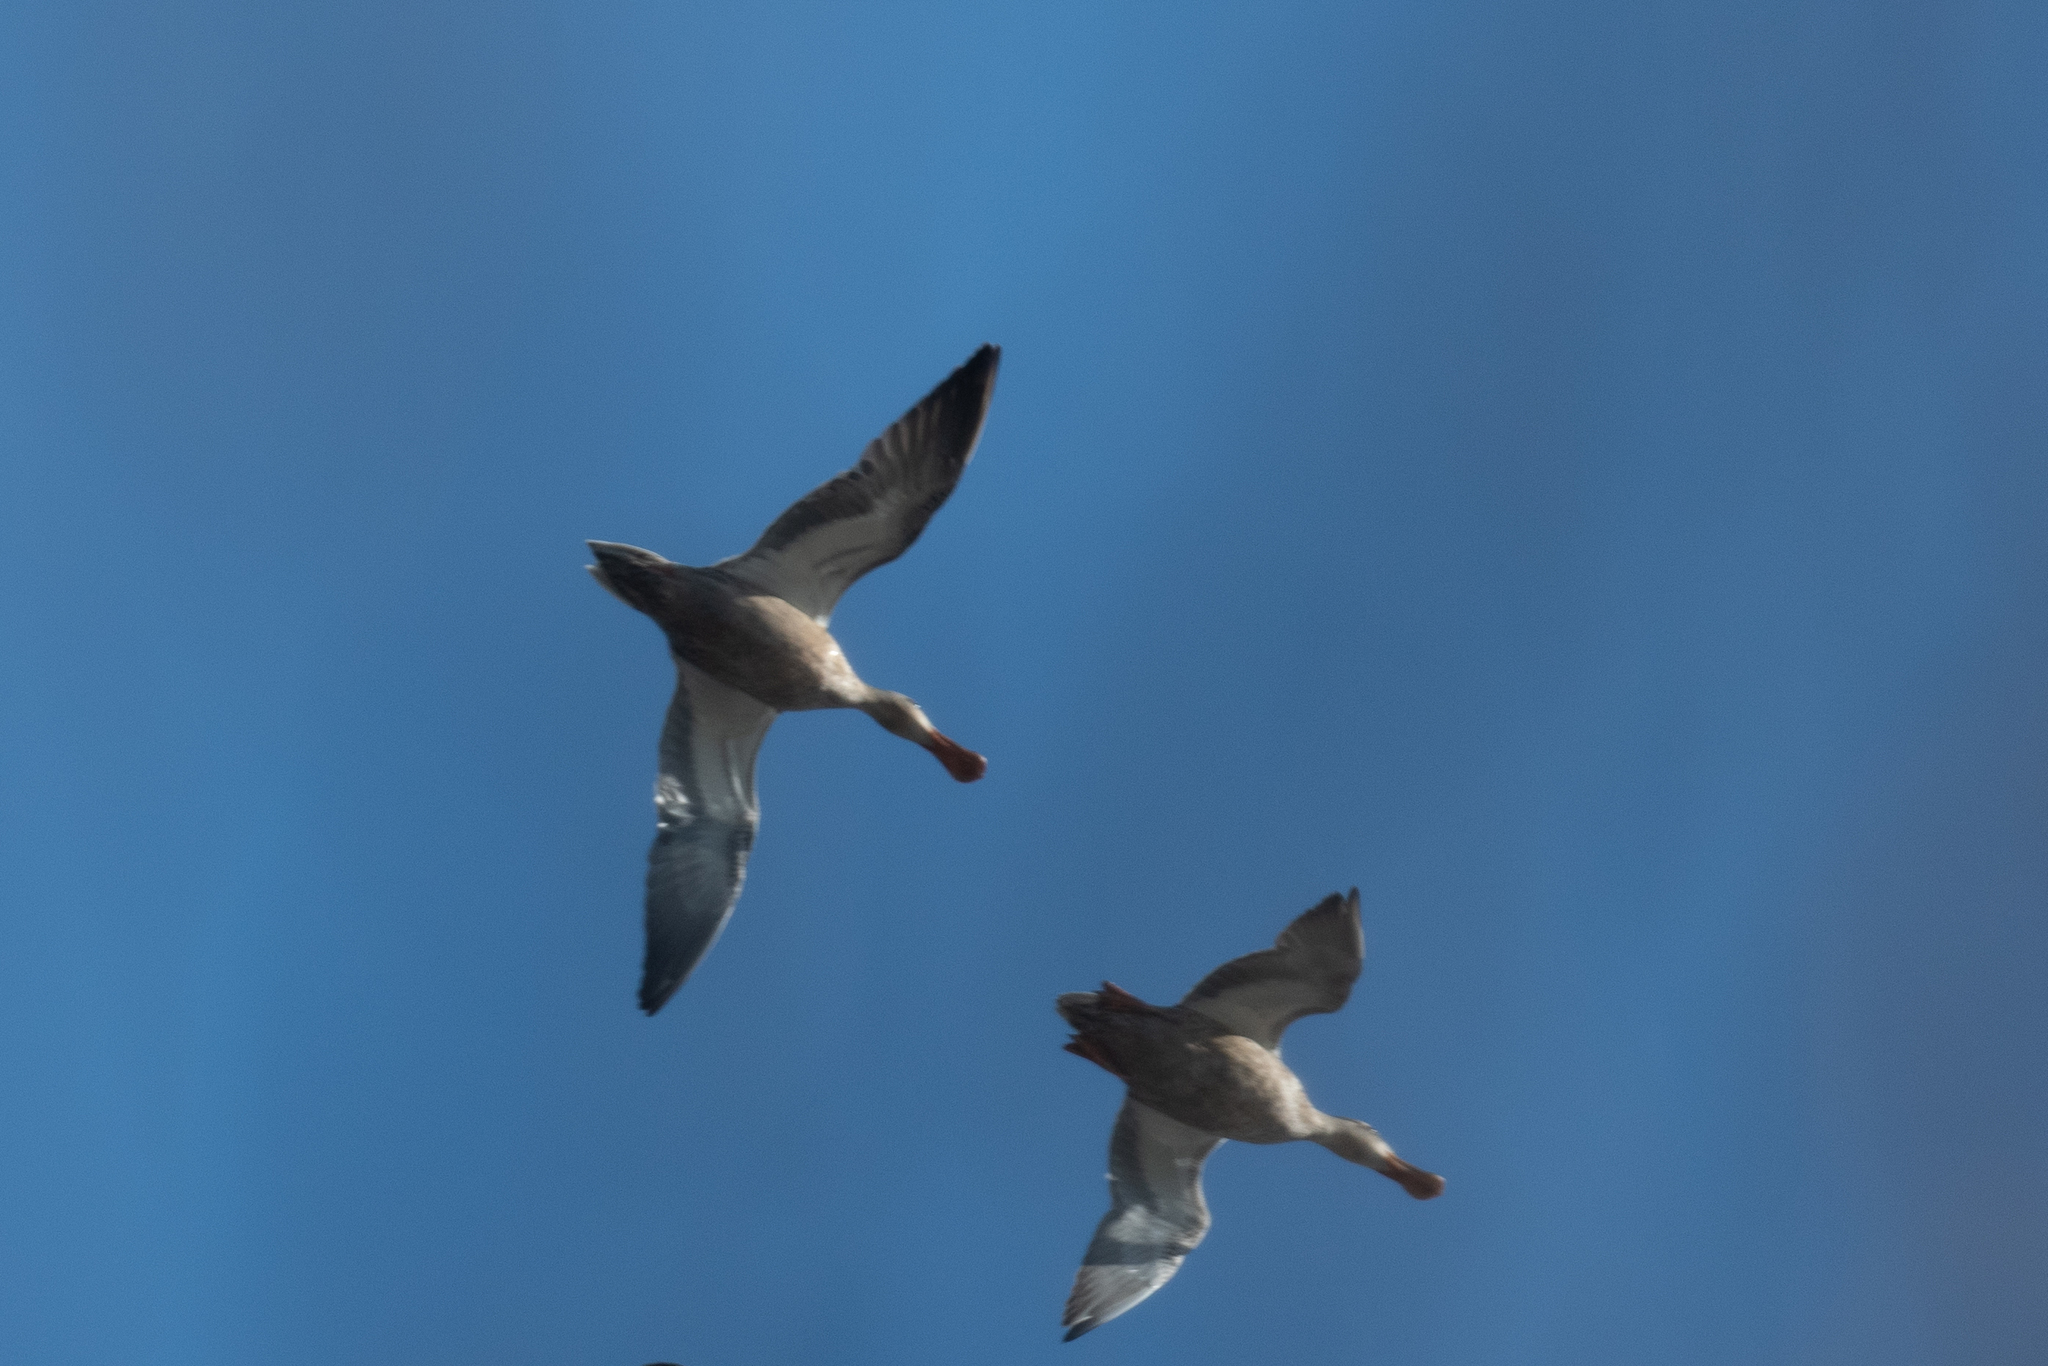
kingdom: Animalia
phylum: Chordata
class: Aves
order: Anseriformes
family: Anatidae
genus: Spatula
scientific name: Spatula clypeata
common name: Northern shoveler
